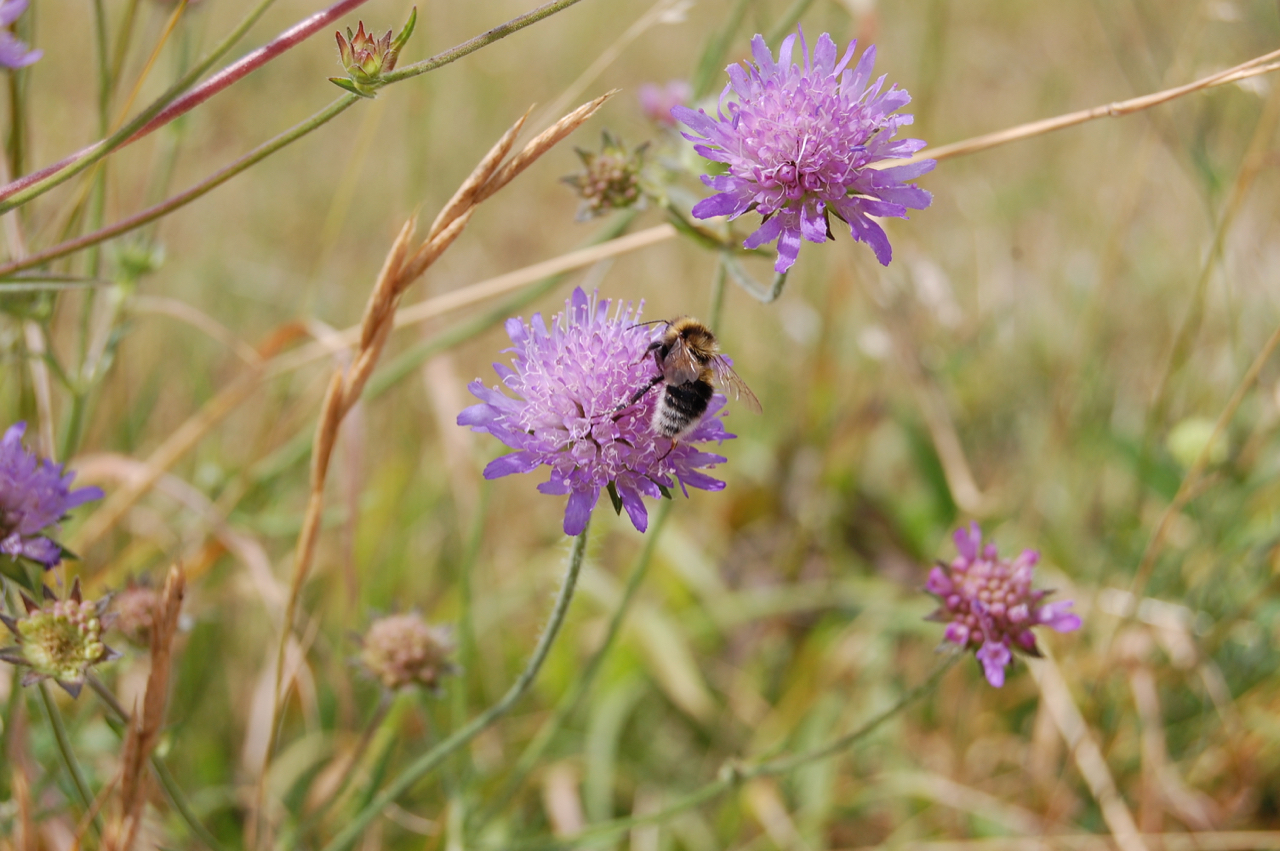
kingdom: Plantae
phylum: Tracheophyta
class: Magnoliopsida
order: Dipsacales
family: Caprifoliaceae
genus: Knautia
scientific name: Knautia arvensis
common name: Field scabiosa
